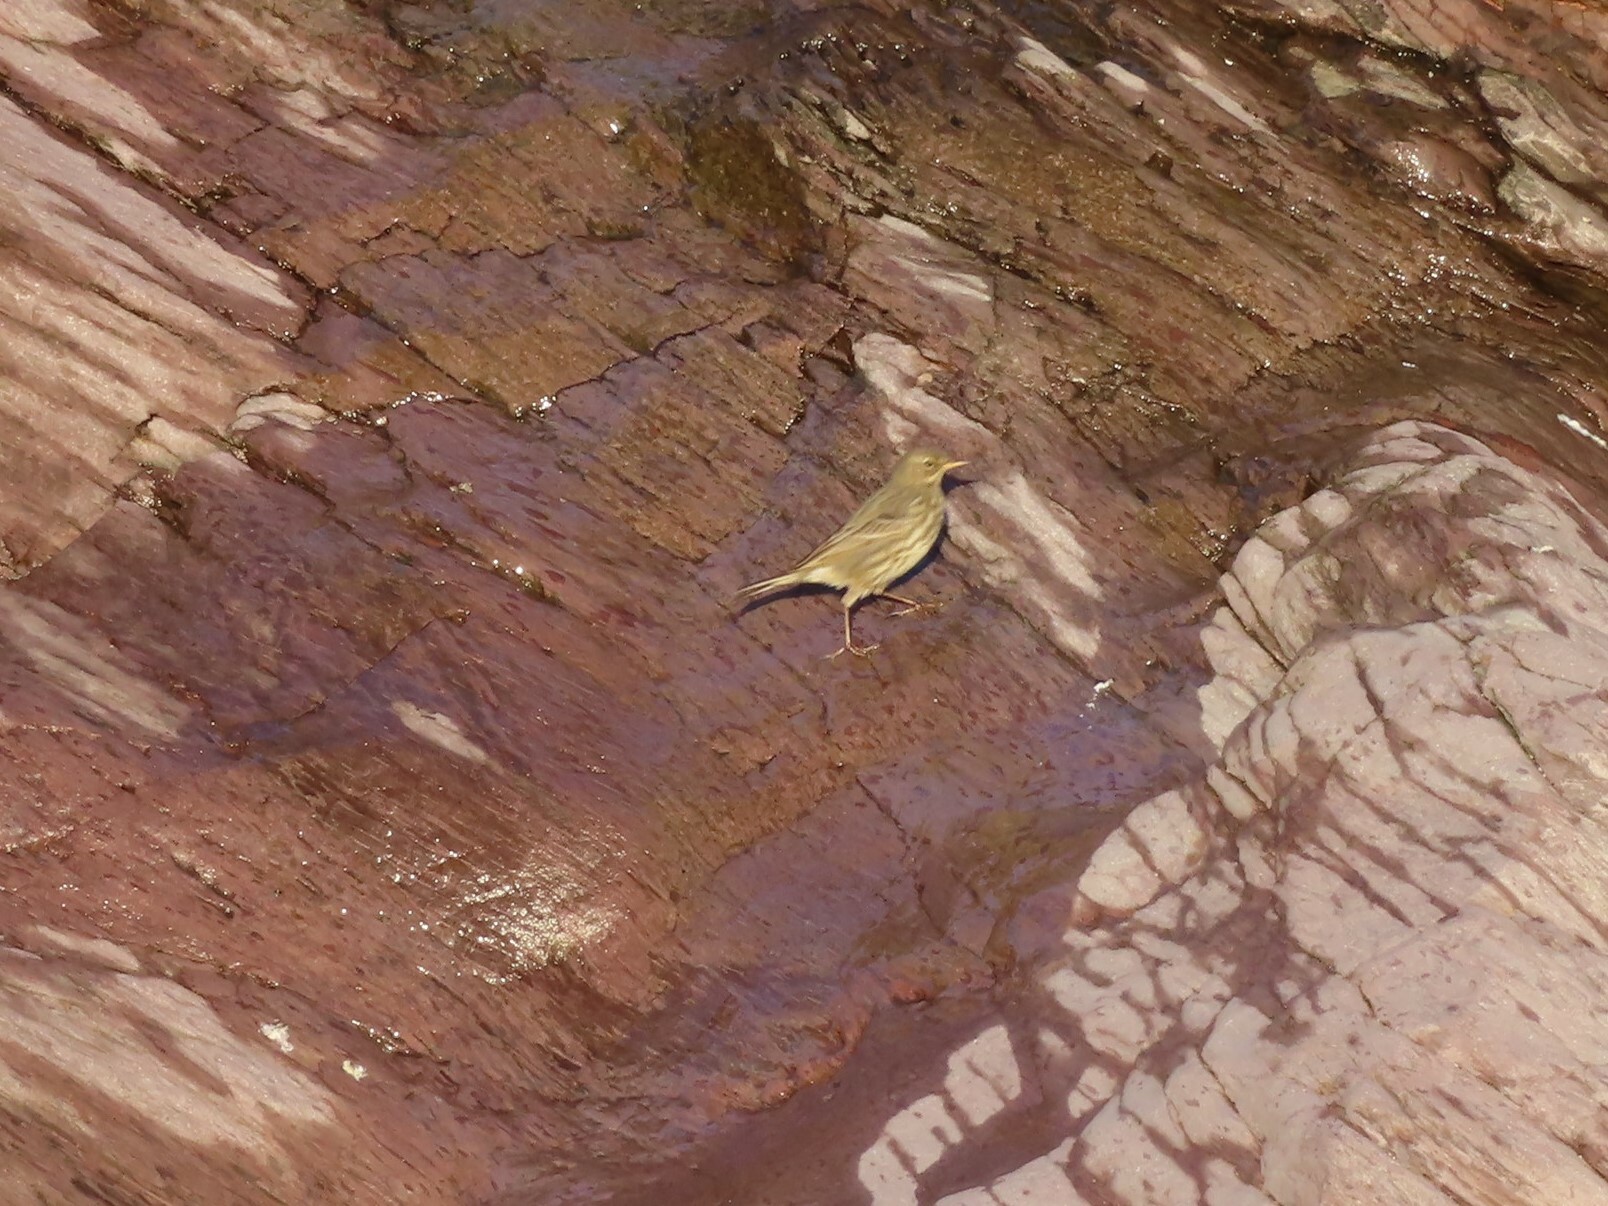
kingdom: Animalia
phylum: Chordata
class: Aves
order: Passeriformes
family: Motacillidae
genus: Anthus
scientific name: Anthus petrosus
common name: Eurasian rock pipit
